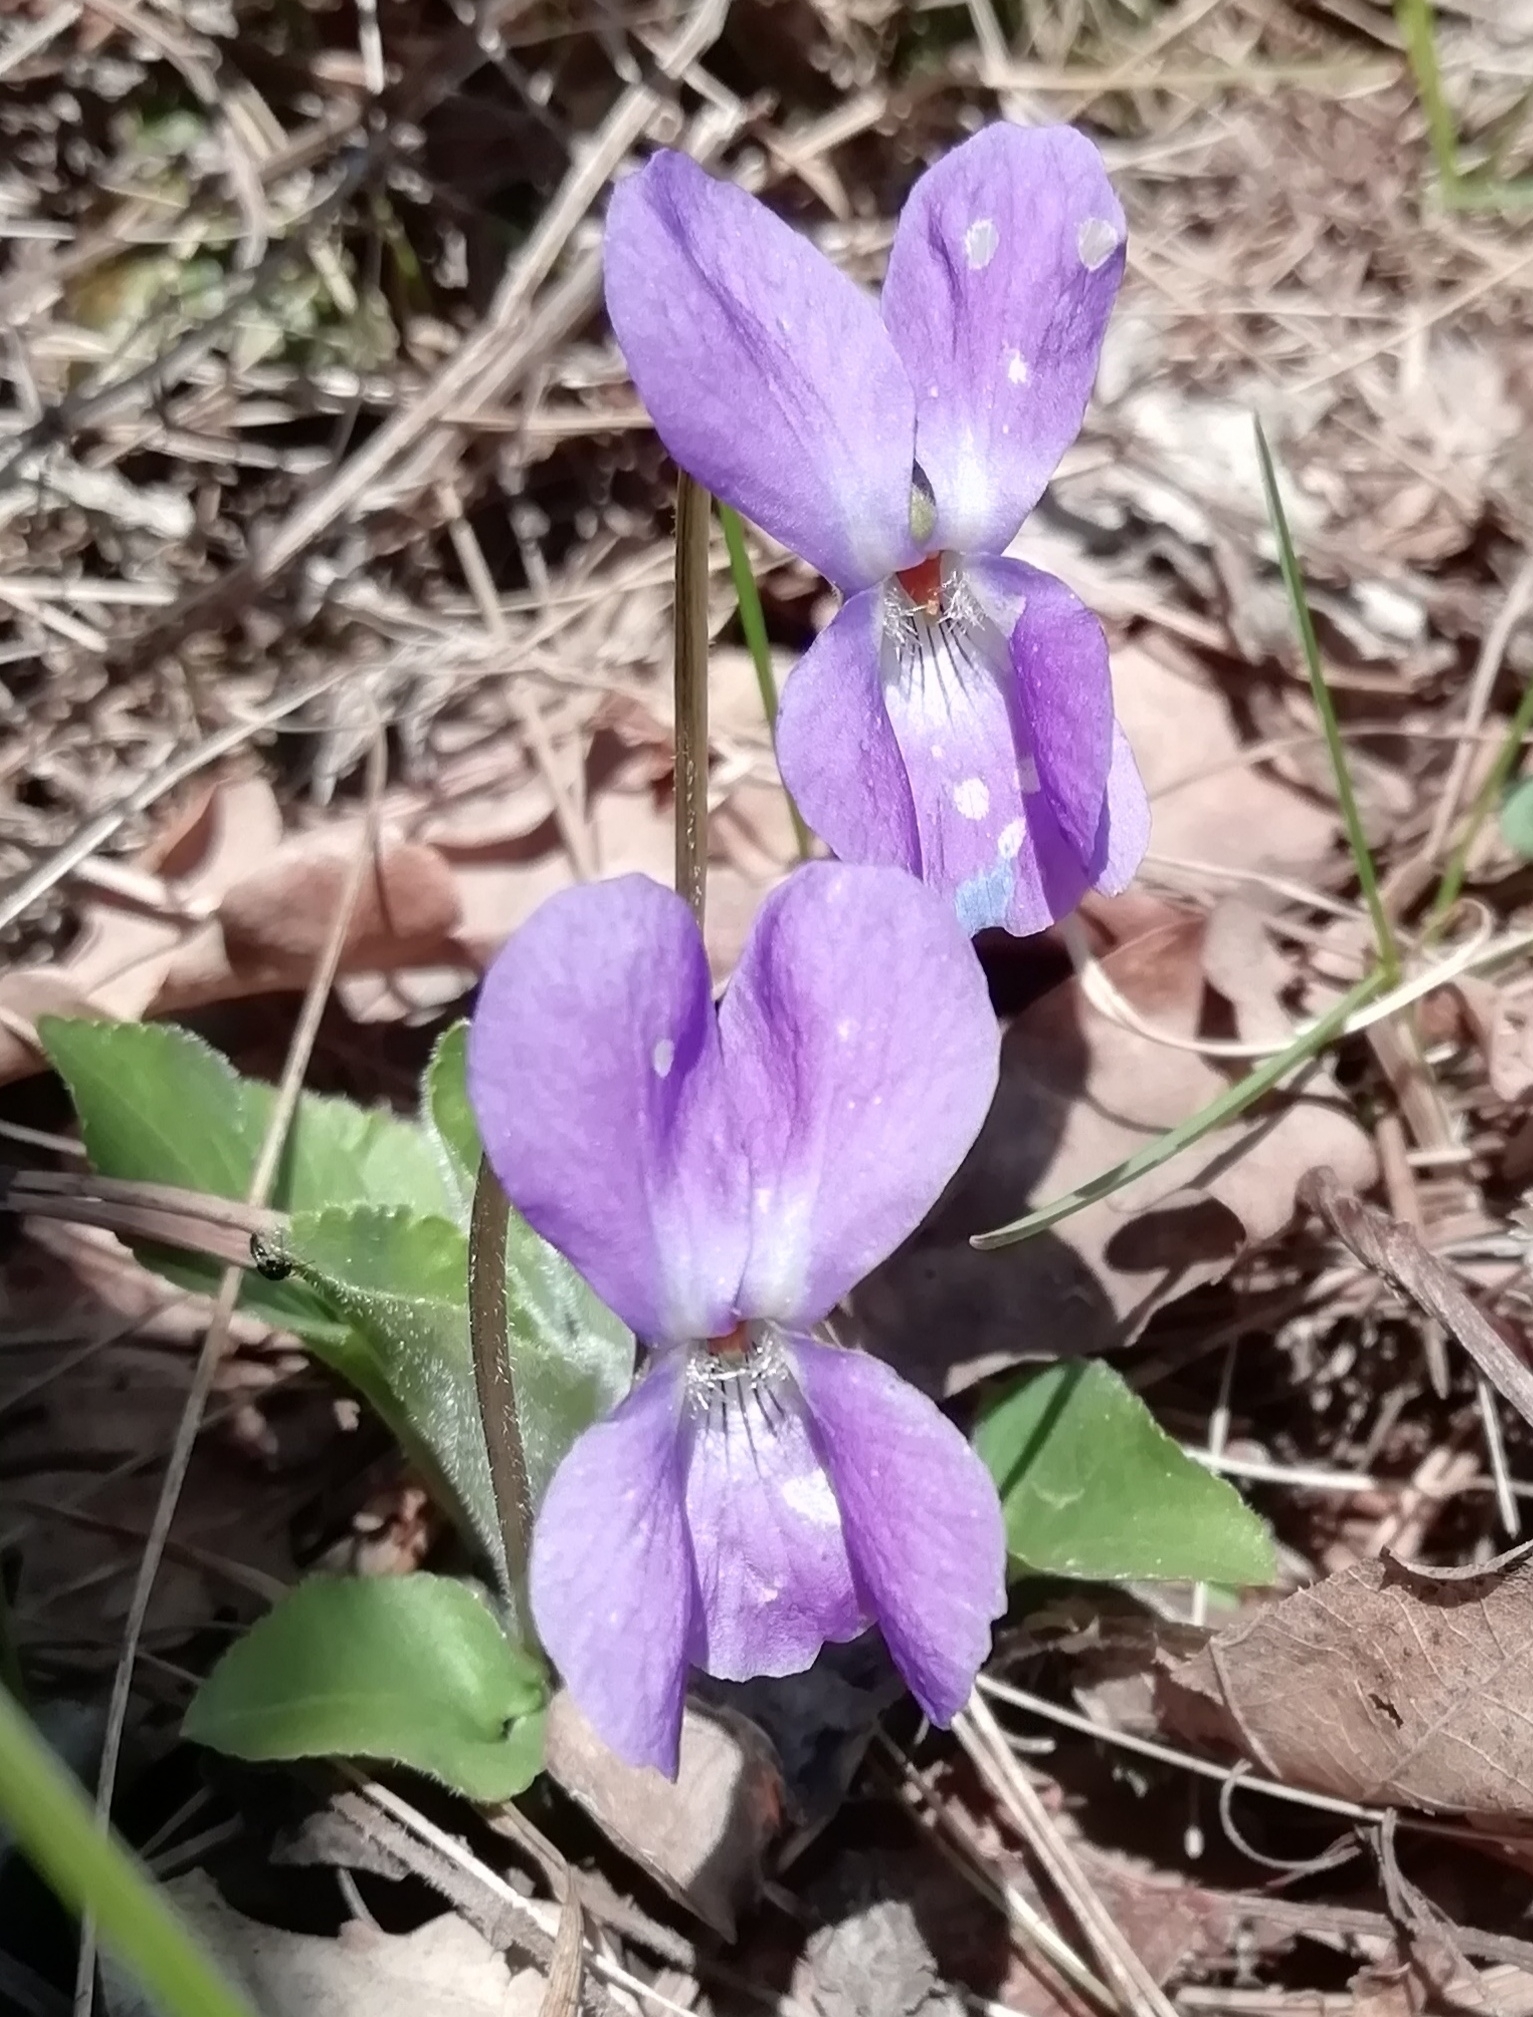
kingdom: Plantae
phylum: Tracheophyta
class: Magnoliopsida
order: Malpighiales
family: Violaceae
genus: Viola
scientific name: Viola hirta
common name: Hairy violet
